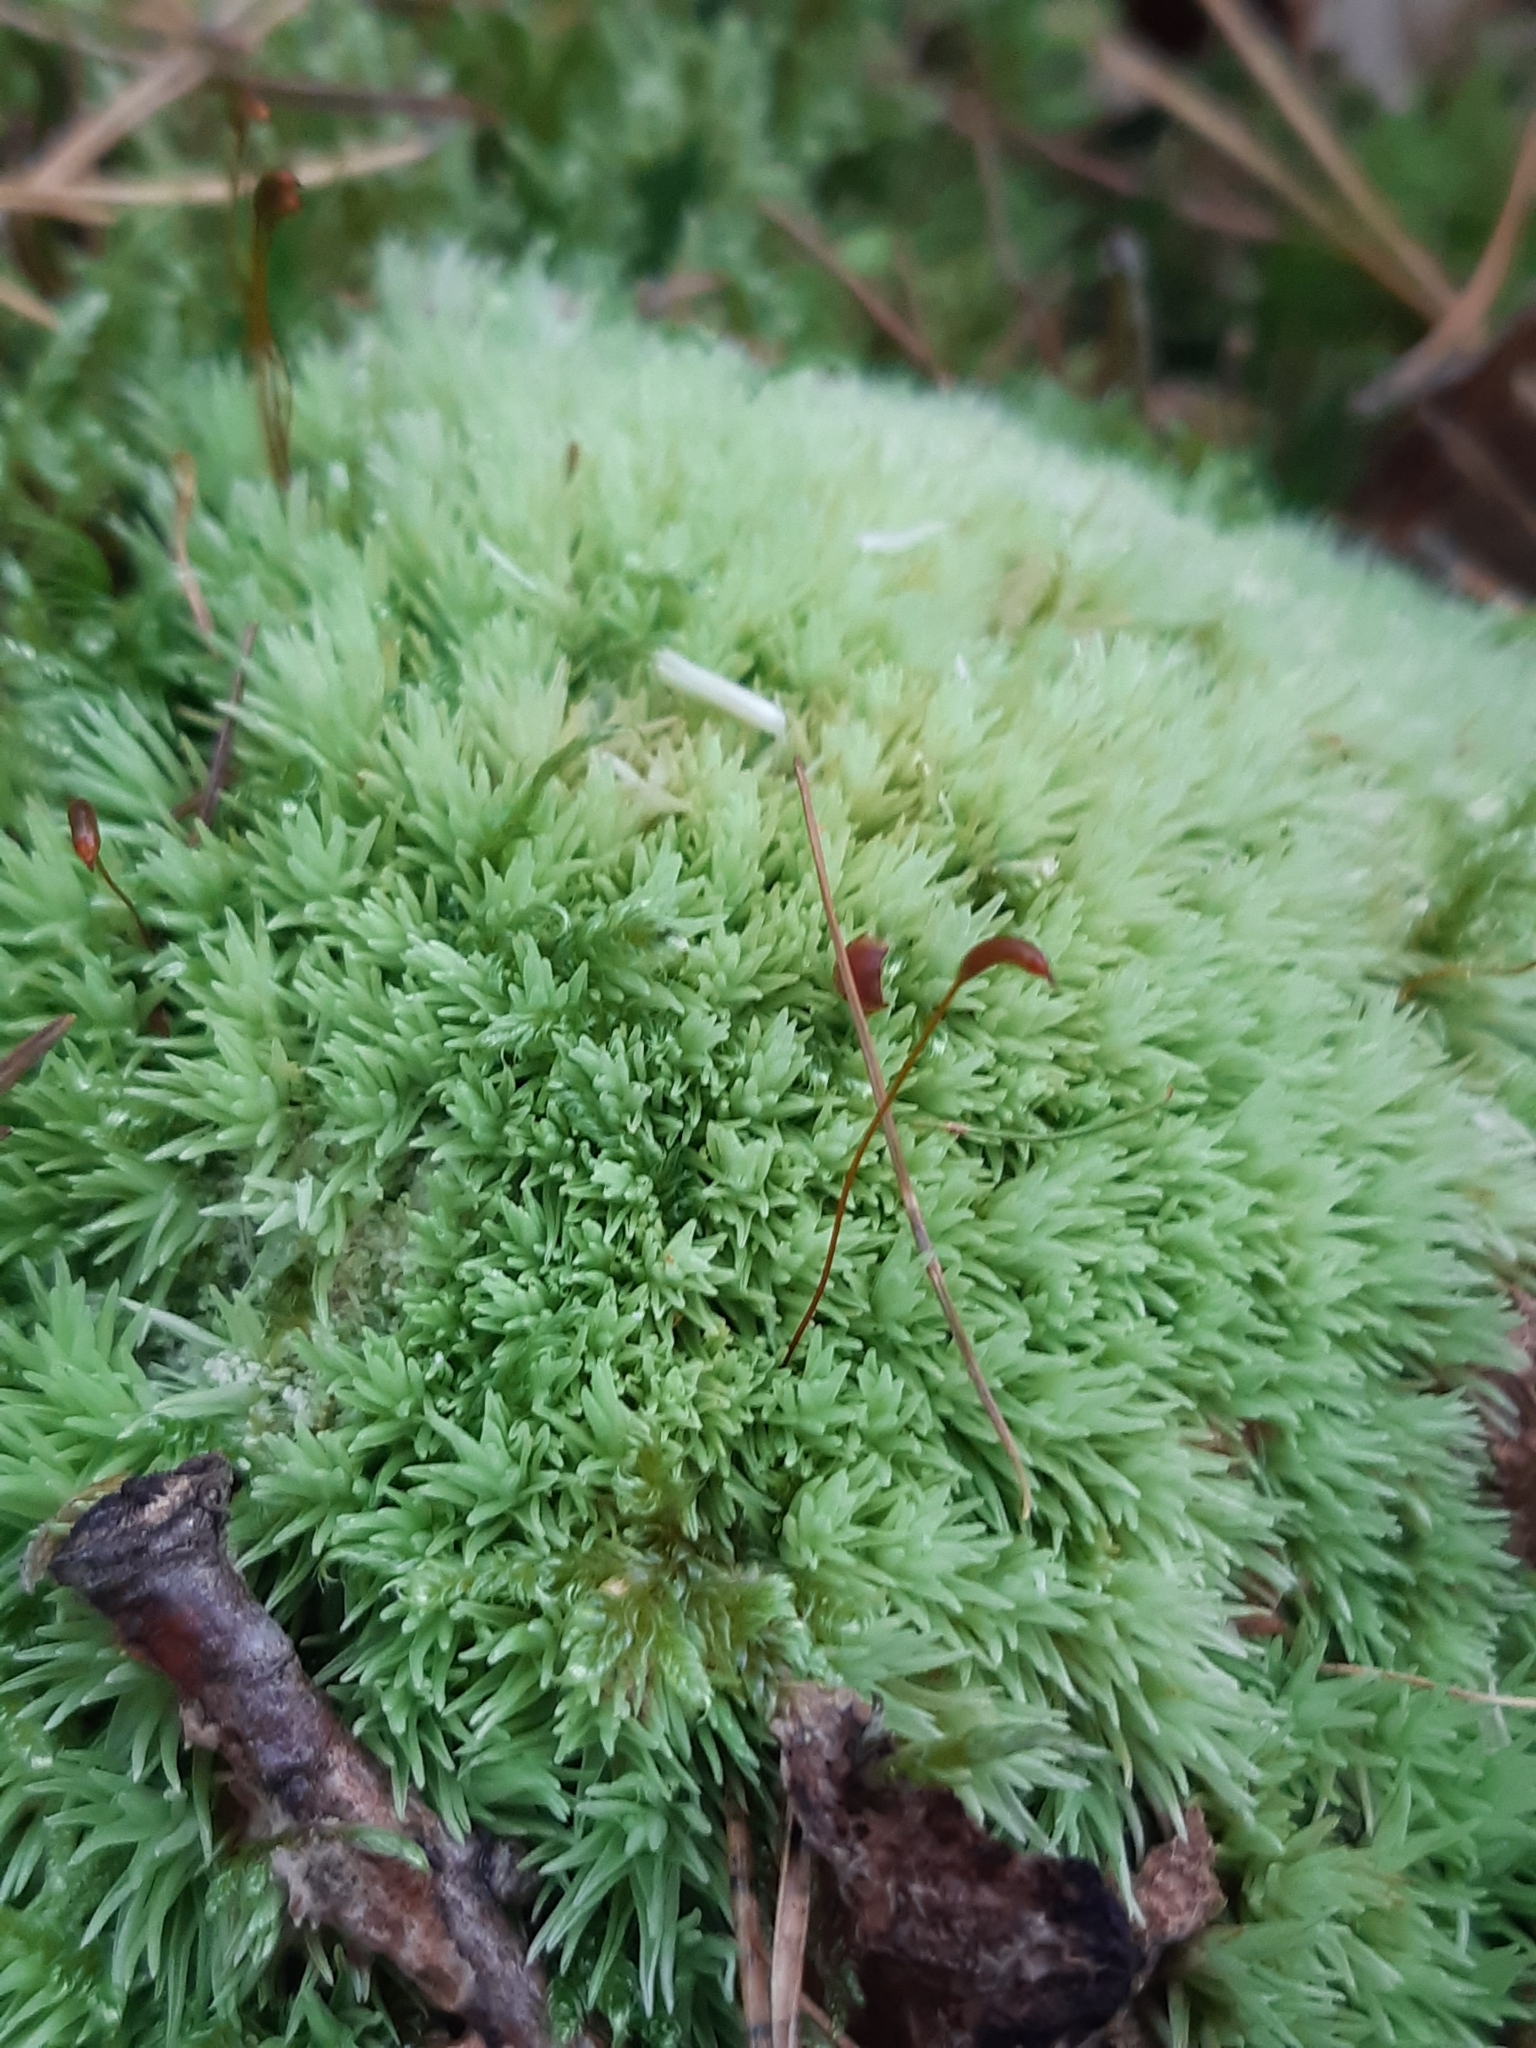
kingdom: Plantae
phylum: Bryophyta
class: Bryopsida
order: Dicranales
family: Leucobryaceae
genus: Leucobryum
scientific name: Leucobryum glaucum
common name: Large white-moss
